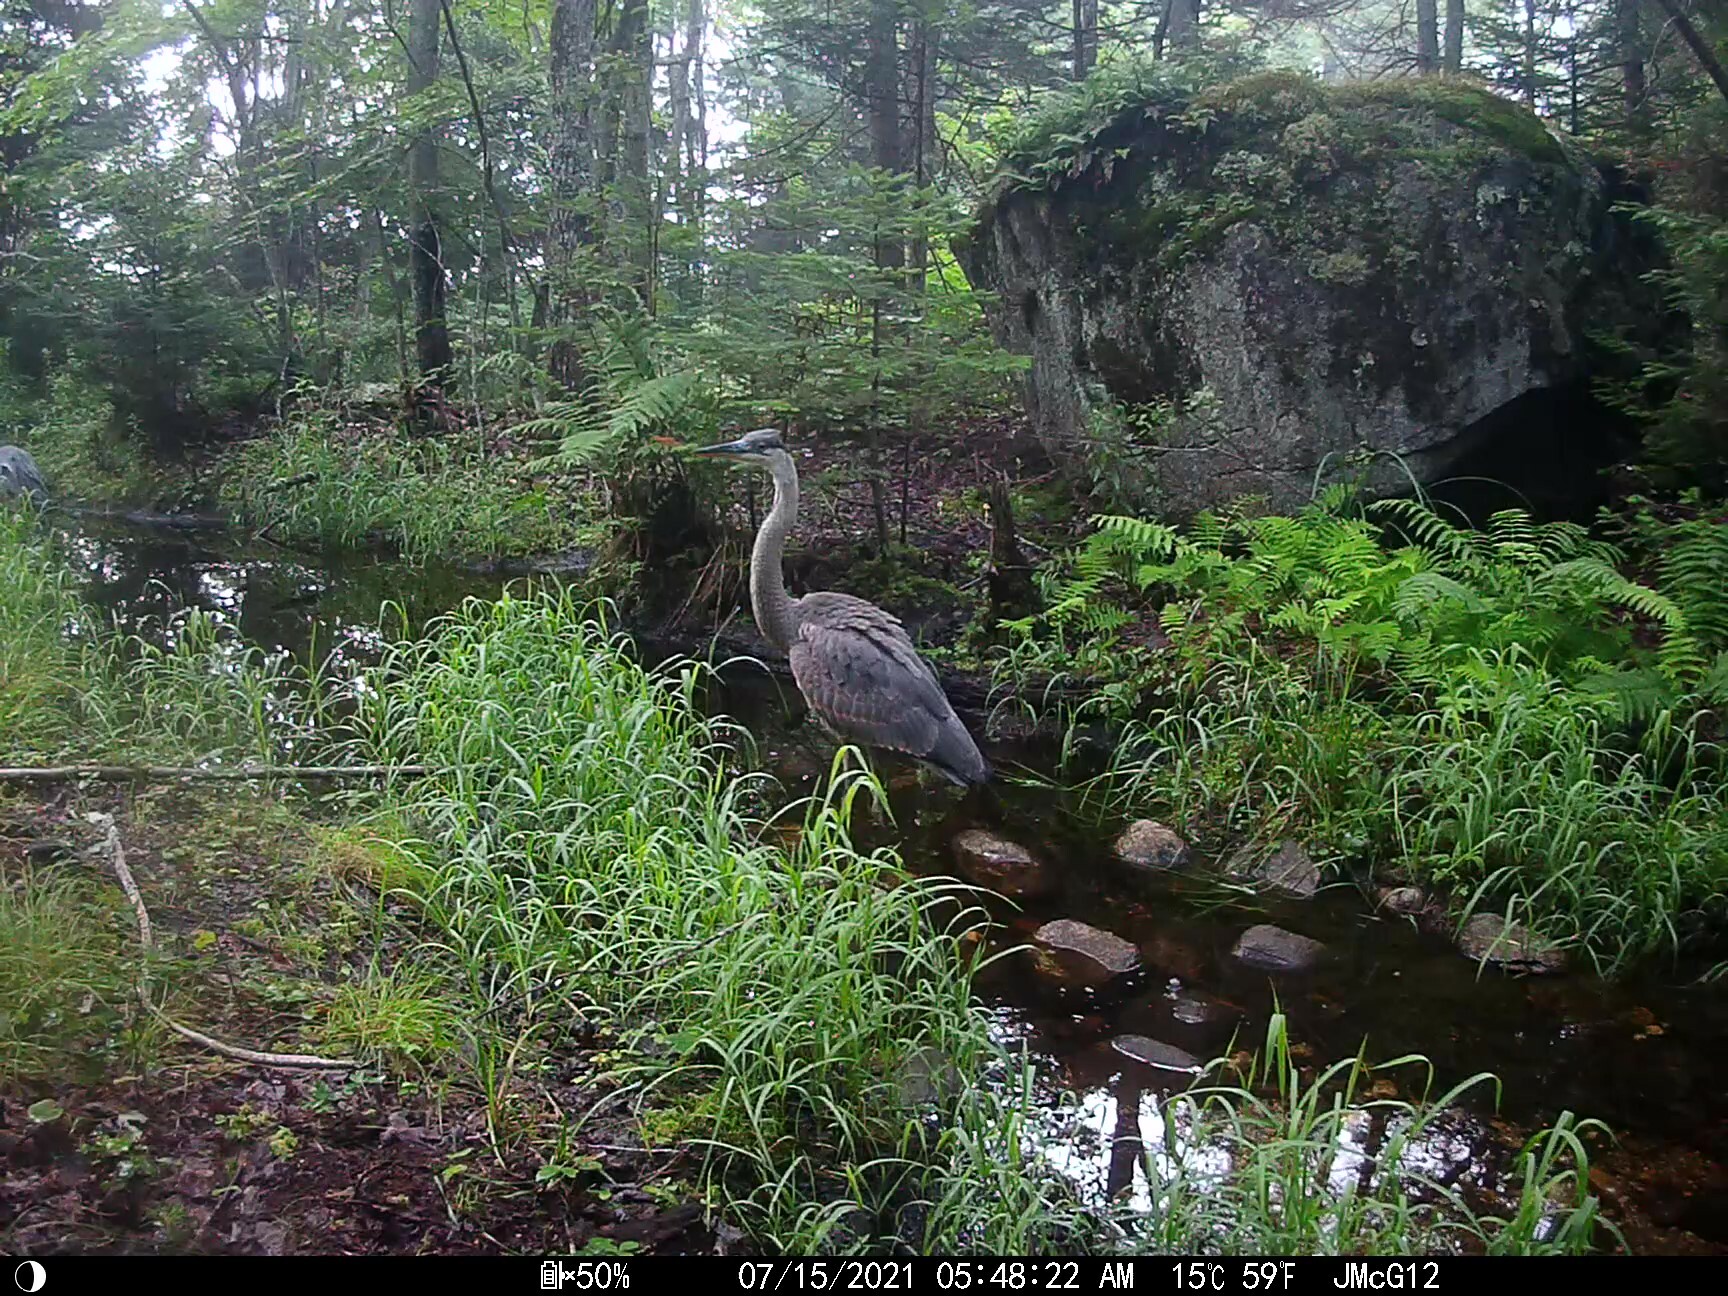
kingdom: Animalia
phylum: Chordata
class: Aves
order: Pelecaniformes
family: Ardeidae
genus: Ardea
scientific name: Ardea herodias
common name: Great blue heron
